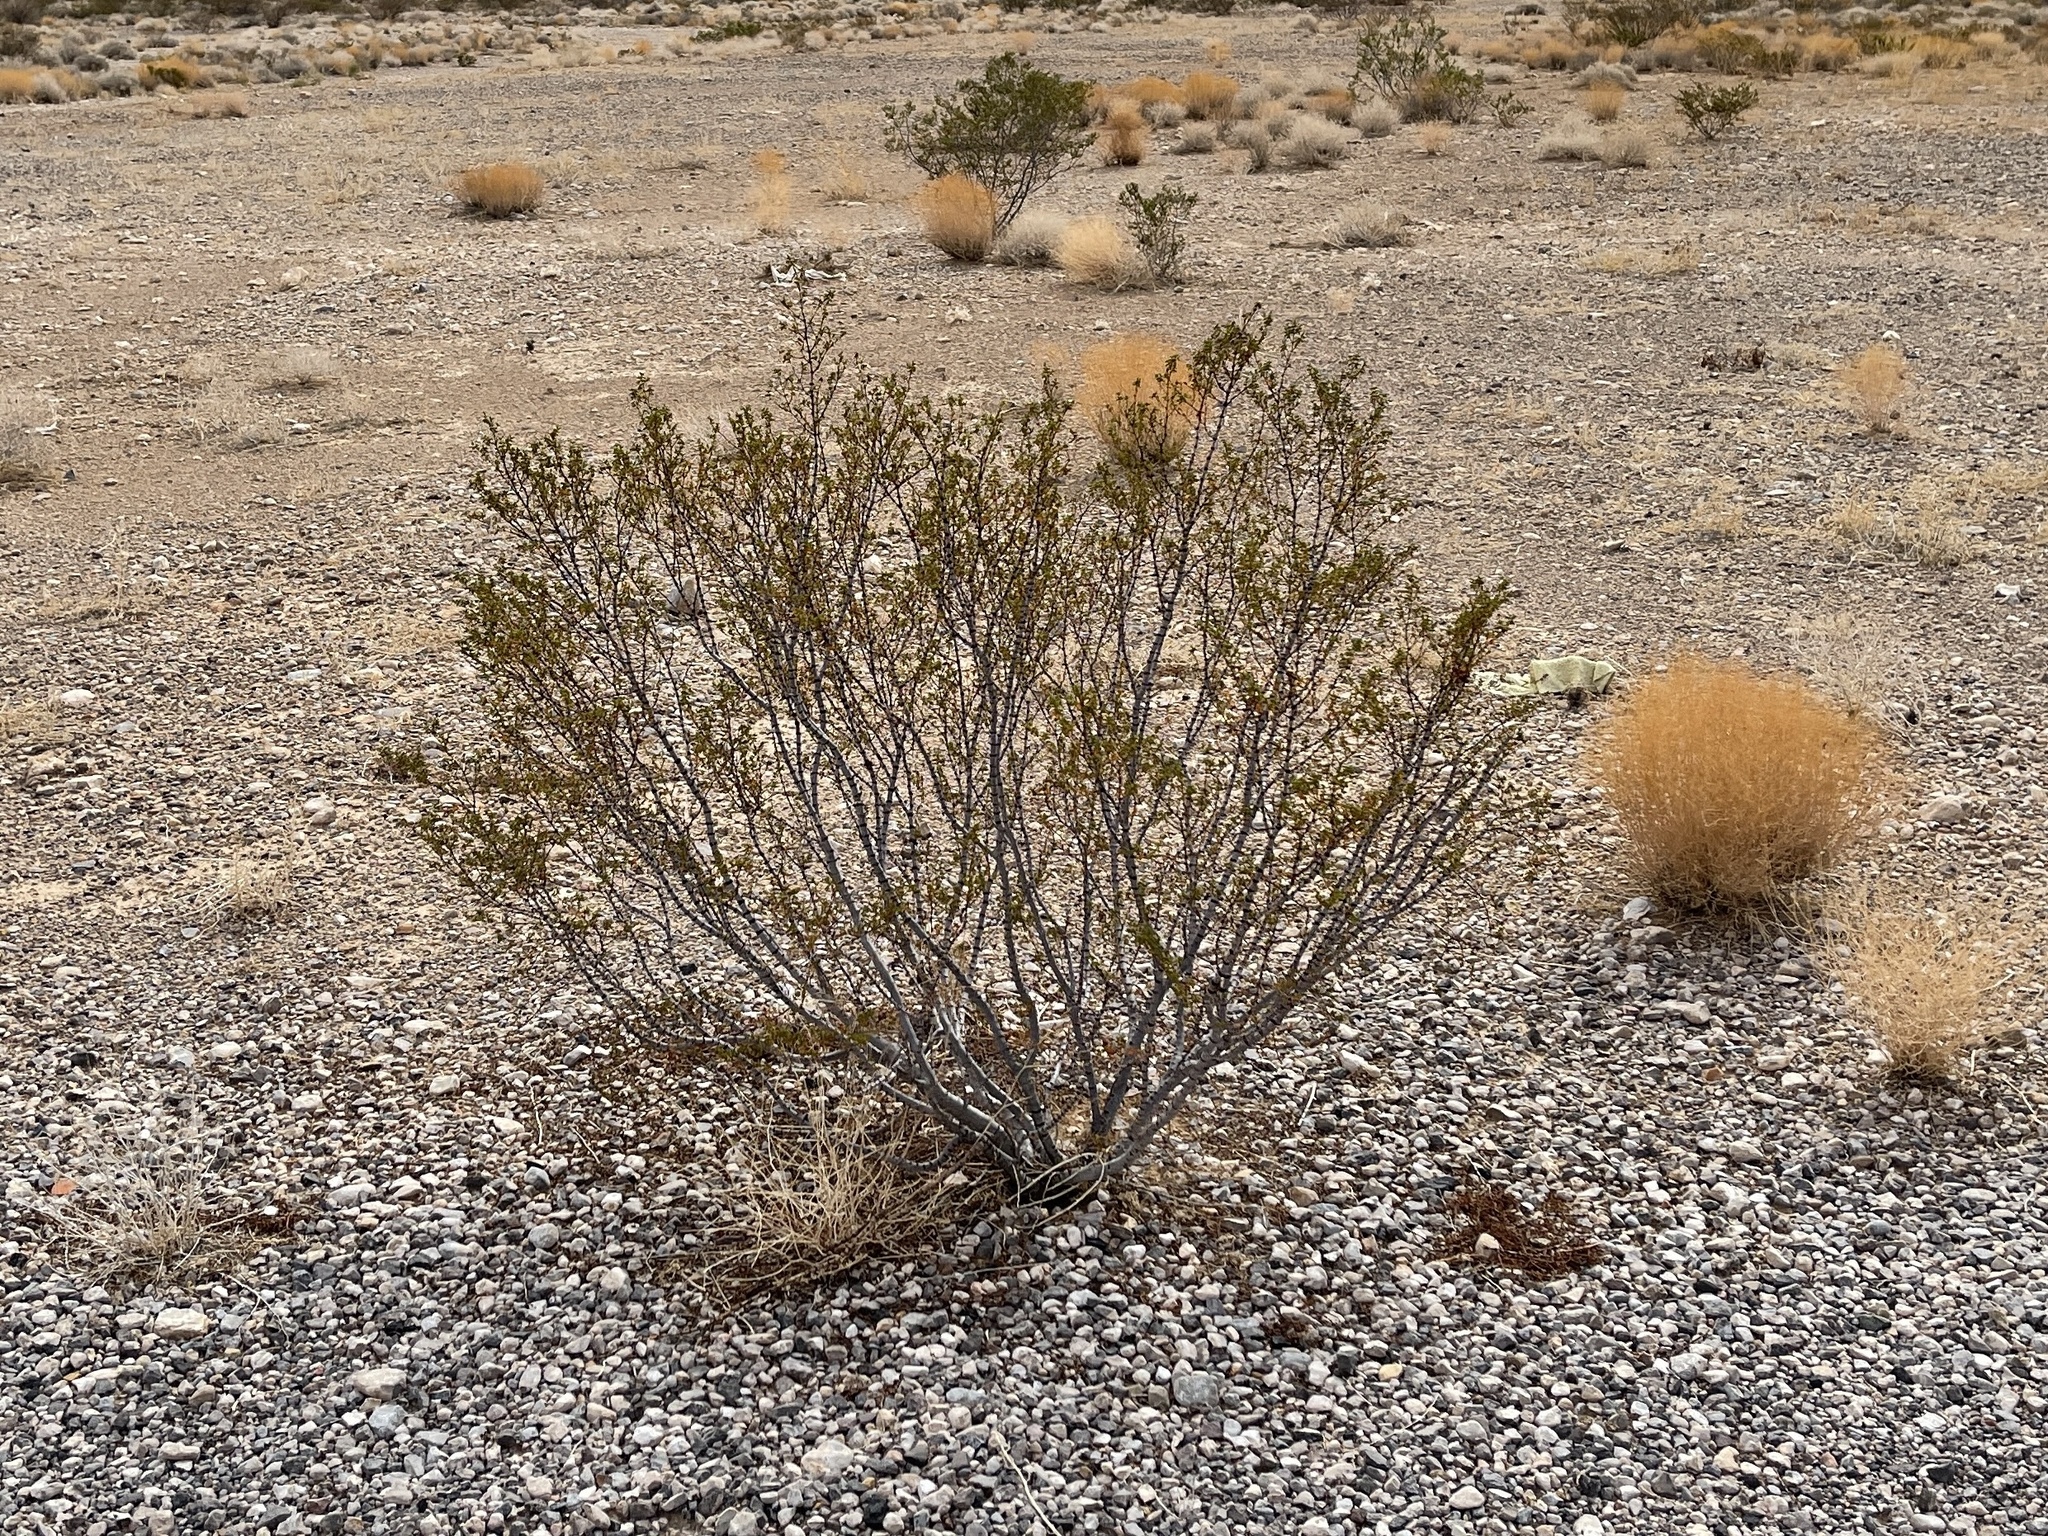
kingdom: Plantae
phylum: Tracheophyta
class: Magnoliopsida
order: Zygophyllales
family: Zygophyllaceae
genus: Larrea
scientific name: Larrea tridentata
